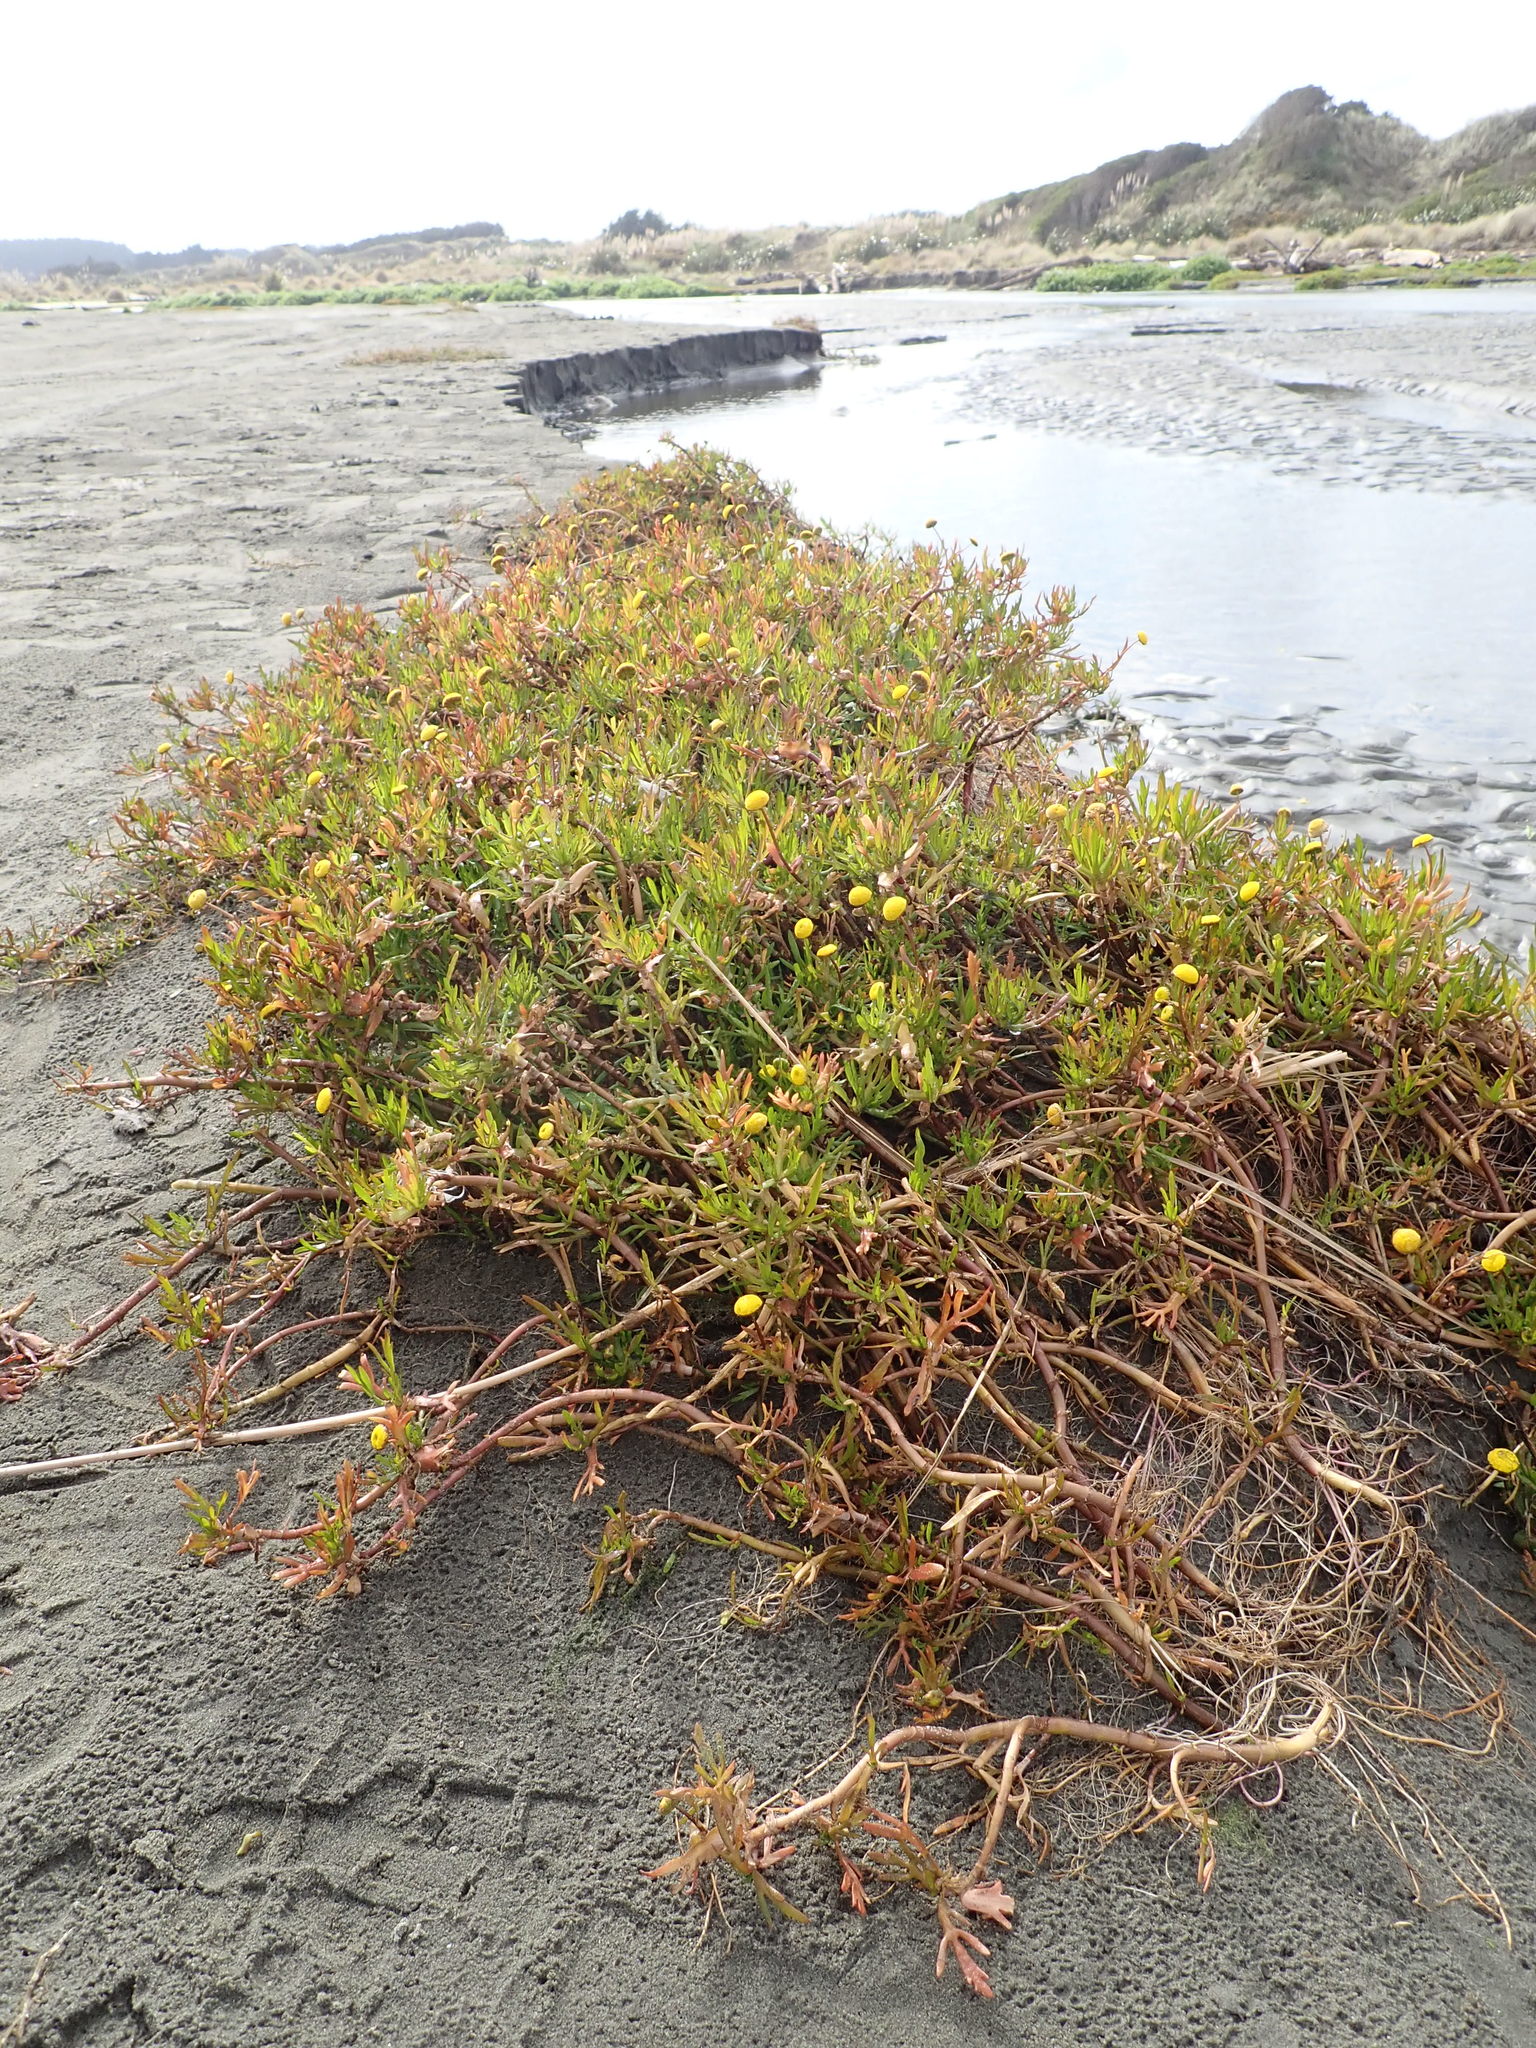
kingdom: Plantae
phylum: Tracheophyta
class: Magnoliopsida
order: Asterales
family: Asteraceae
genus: Cotula
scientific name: Cotula coronopifolia
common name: Buttonweed
